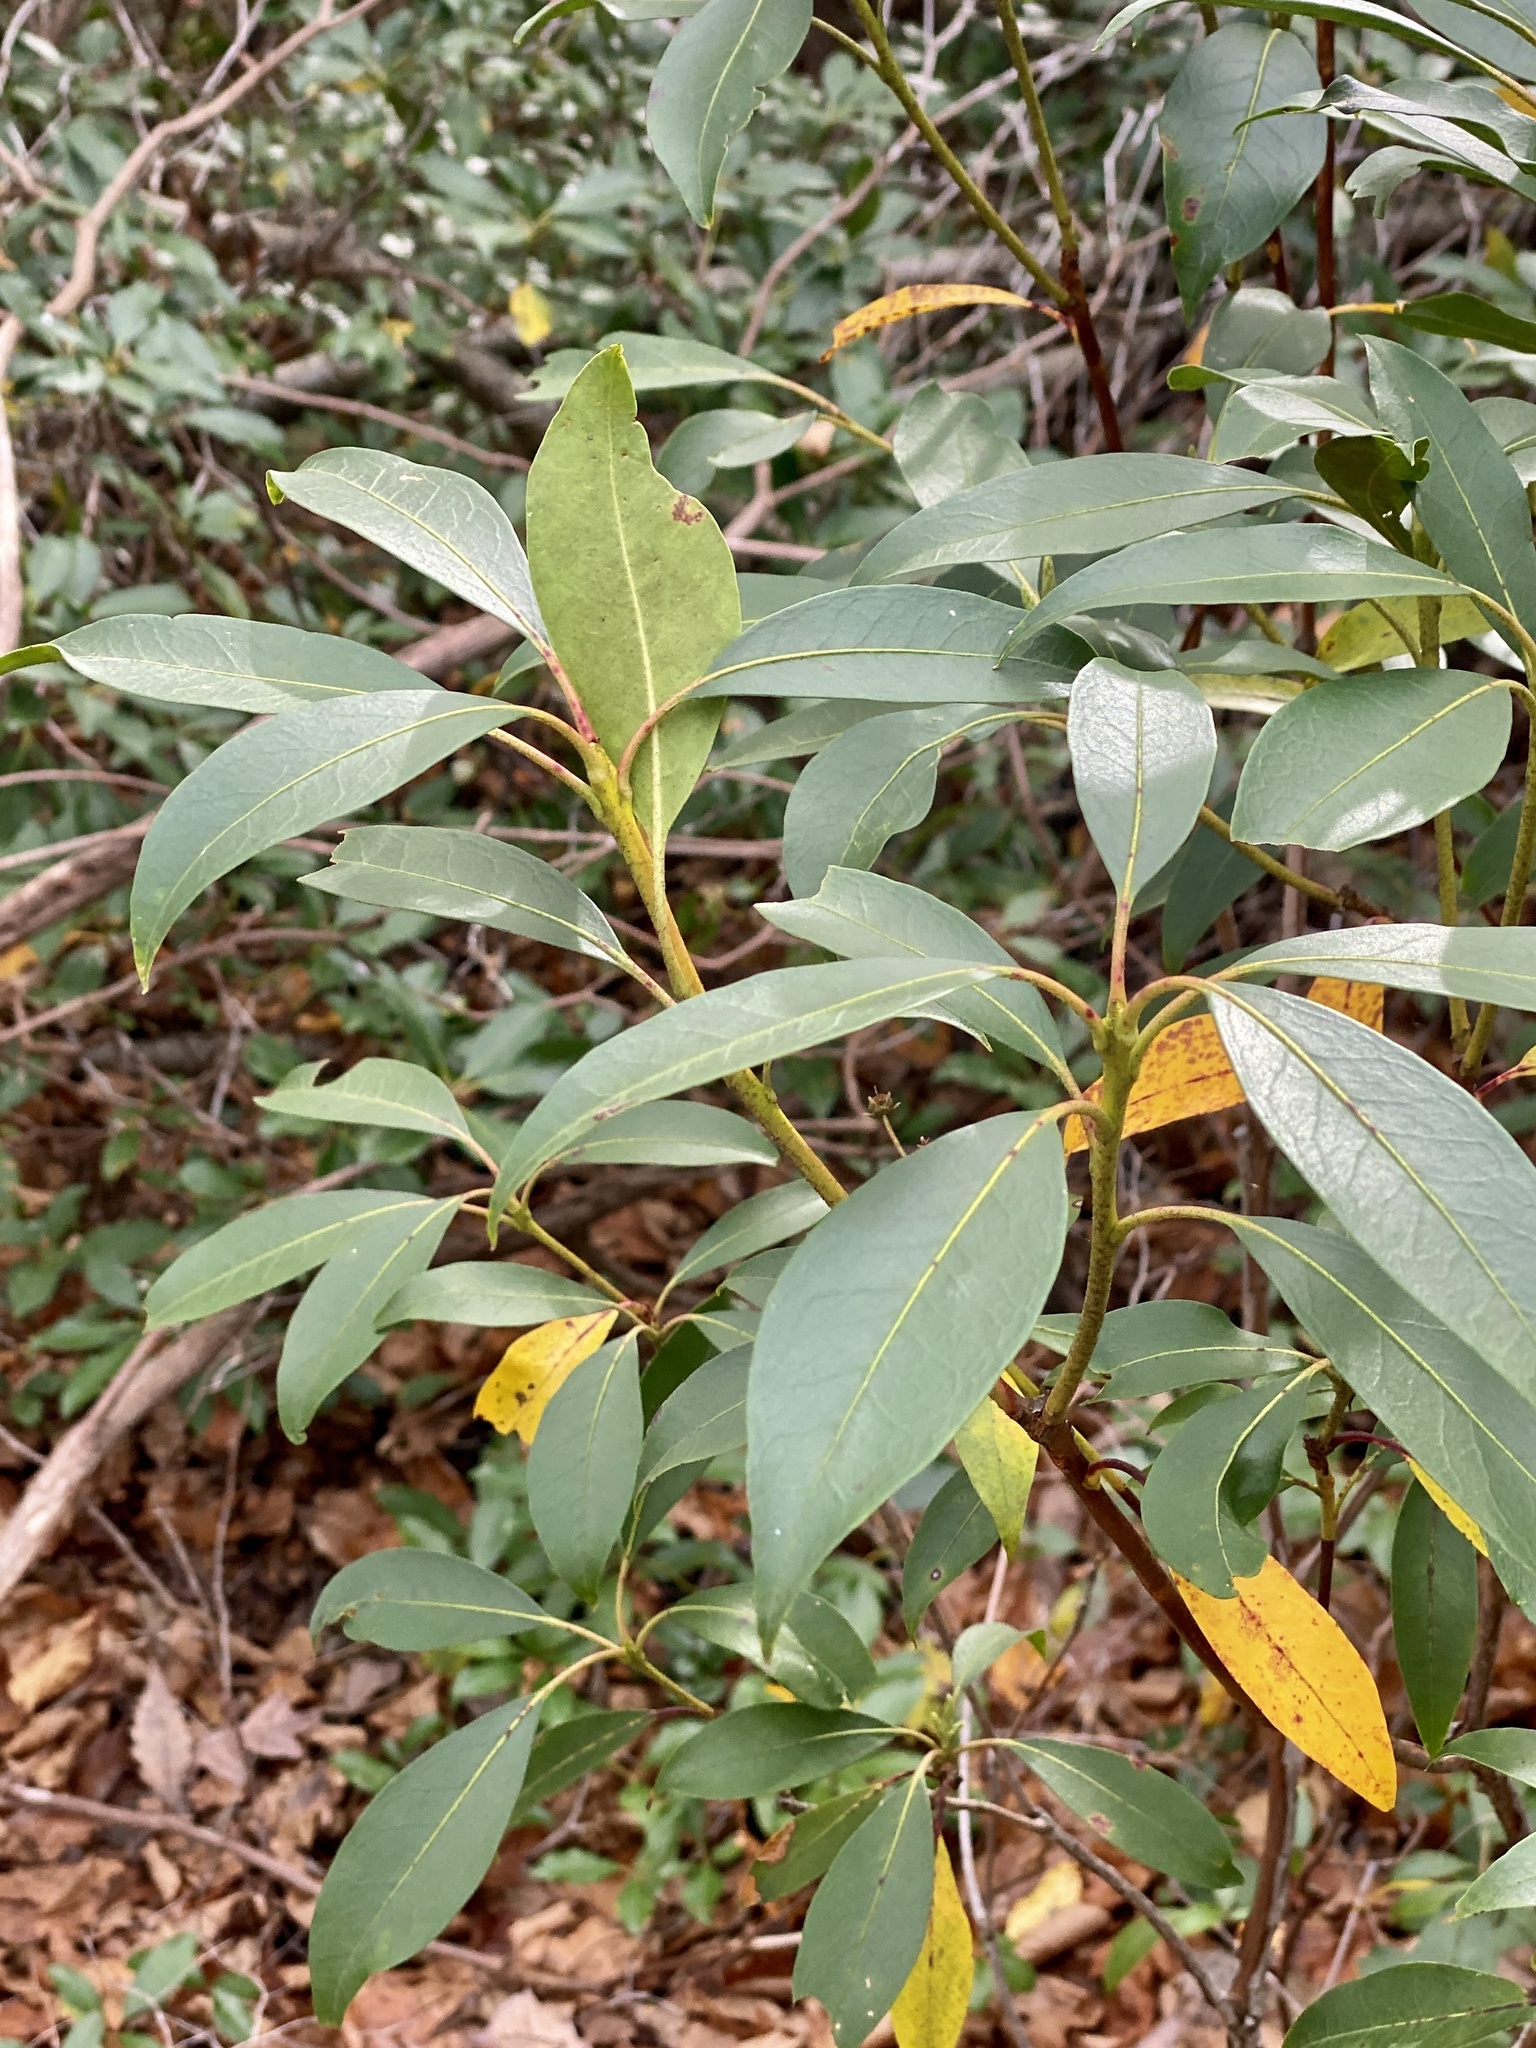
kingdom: Plantae
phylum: Tracheophyta
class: Magnoliopsida
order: Ericales
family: Ericaceae
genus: Kalmia
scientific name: Kalmia latifolia
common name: Mountain-laurel
